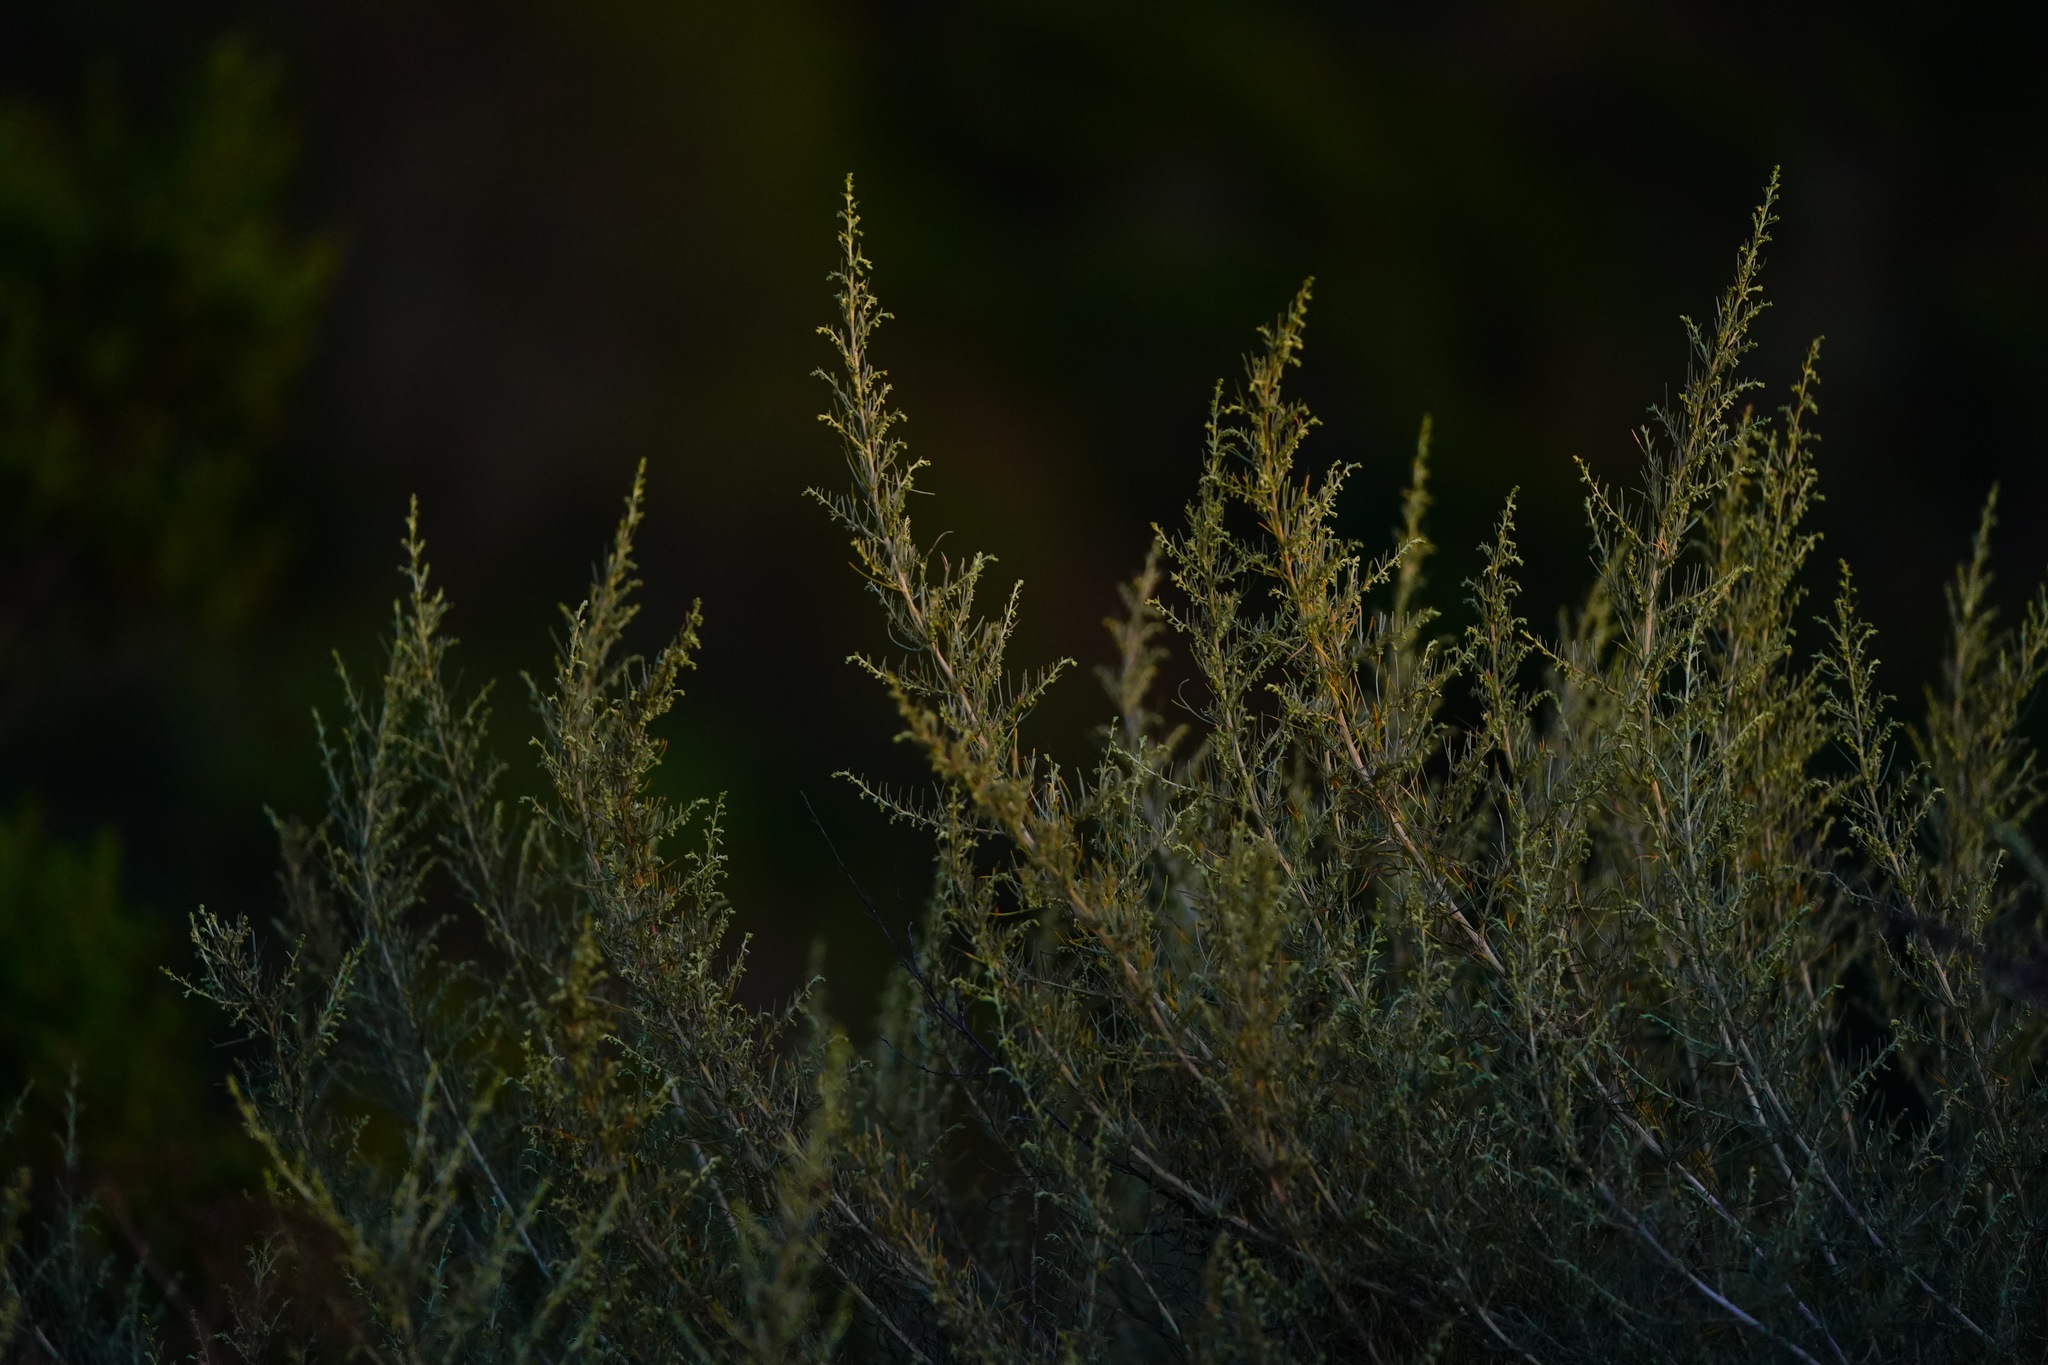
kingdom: Plantae
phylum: Tracheophyta
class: Magnoliopsida
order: Asterales
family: Asteraceae
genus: Artemisia
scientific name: Artemisia californica
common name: California sagebrush
